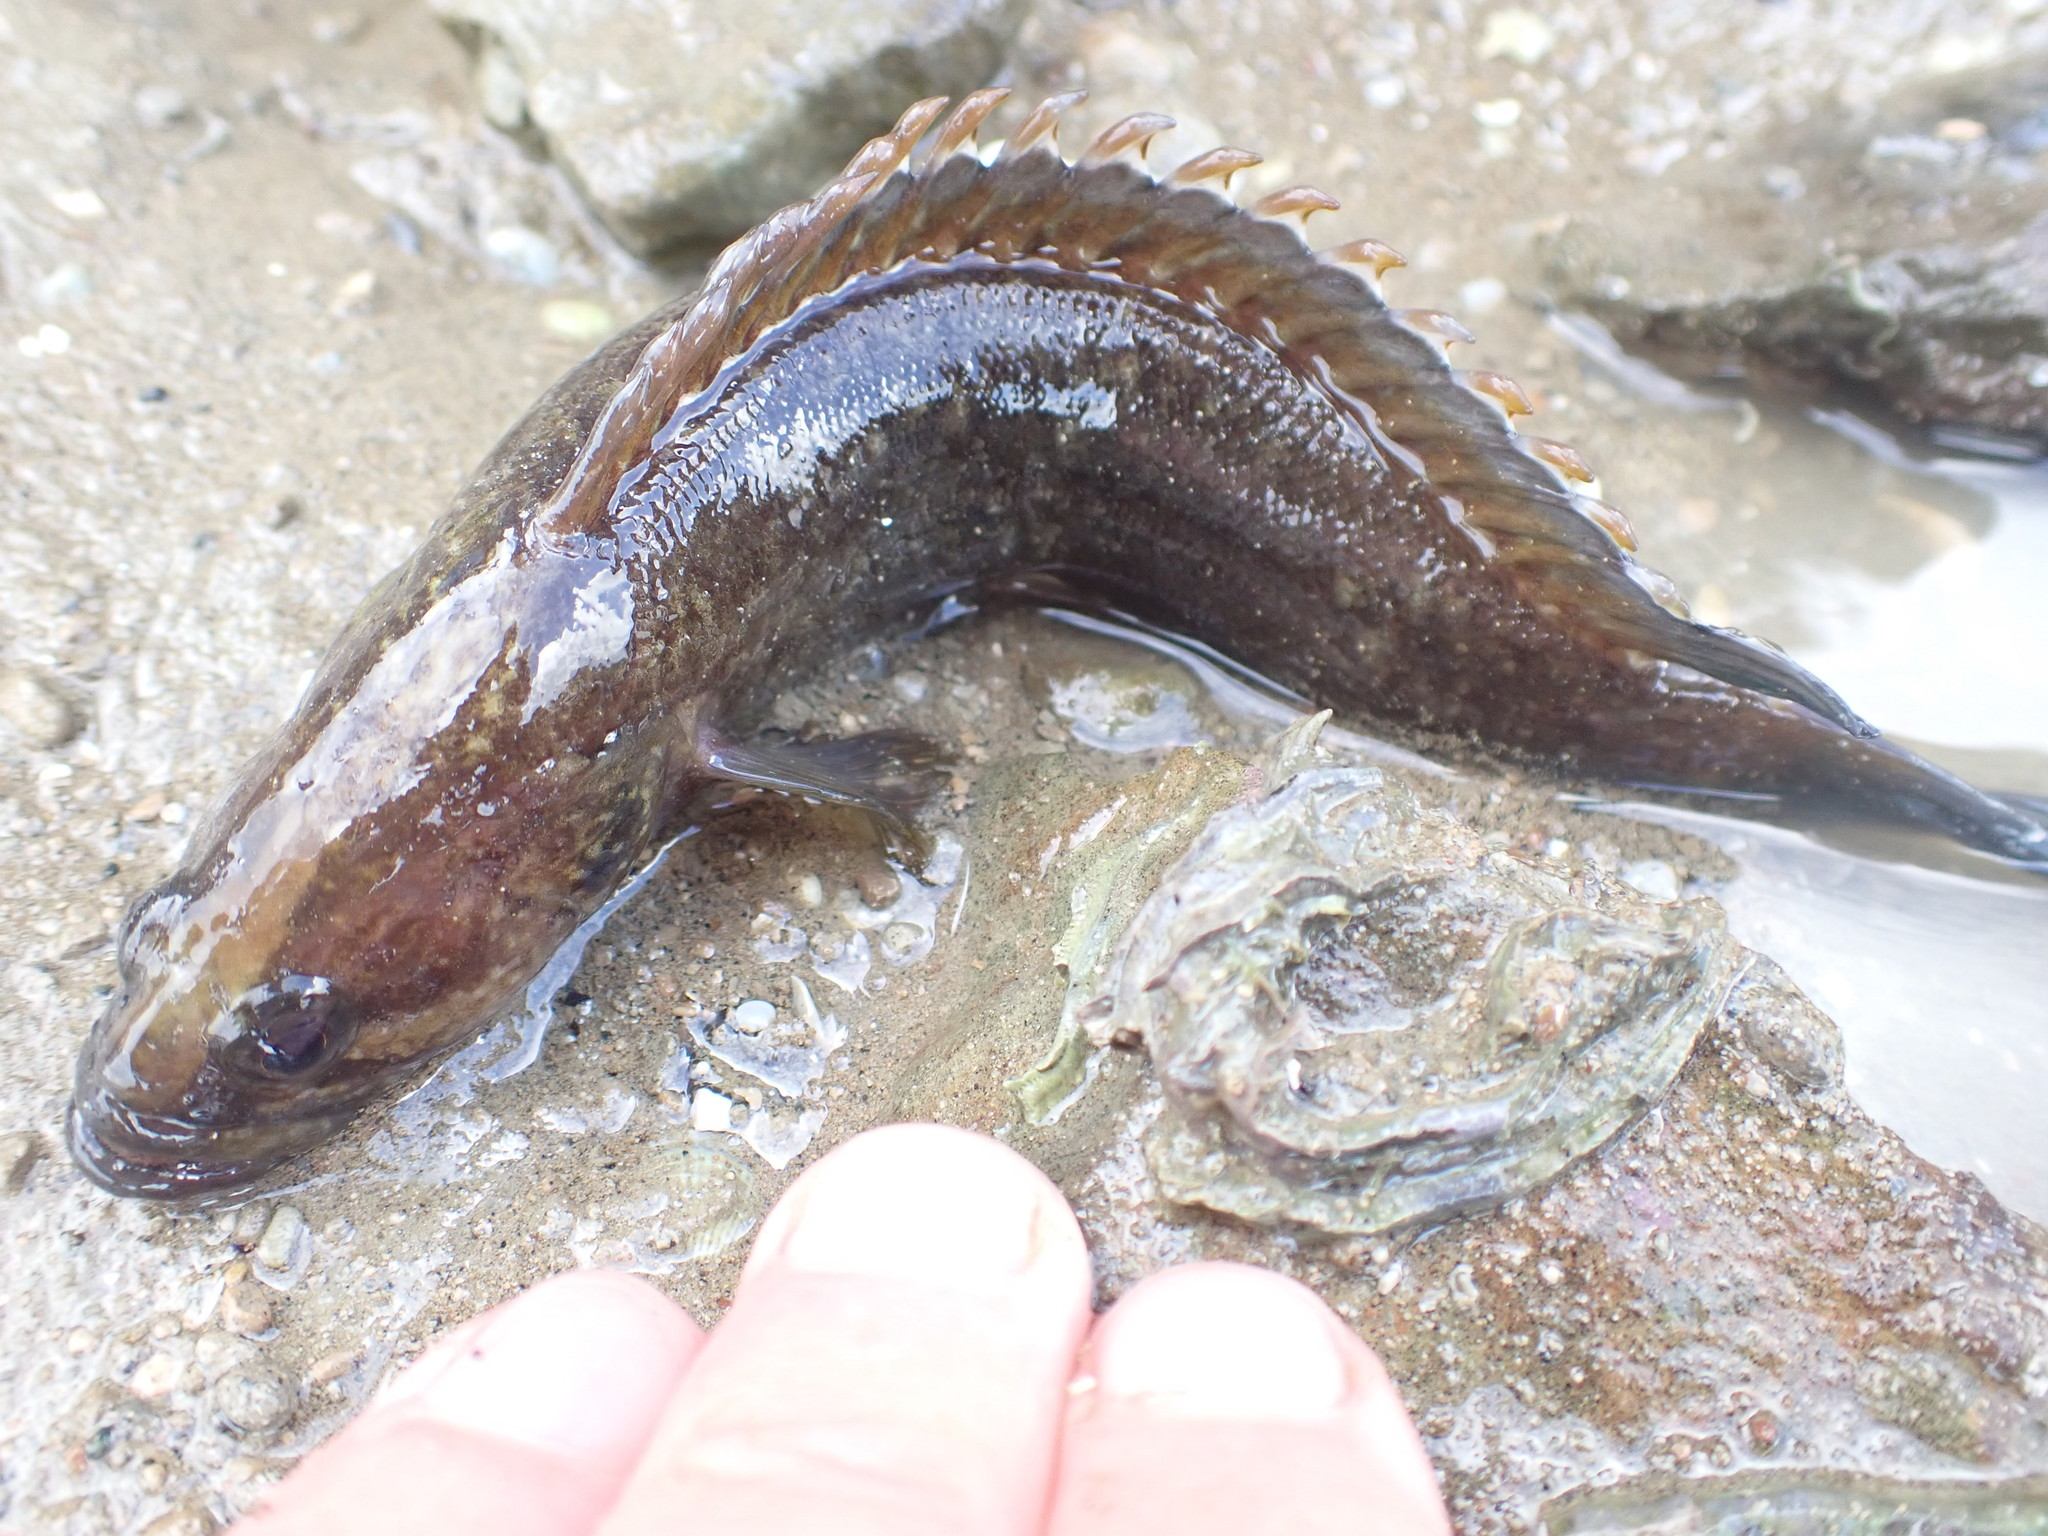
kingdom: Animalia
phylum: Chordata
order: Perciformes
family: Plesiopidae
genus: Acanthoclinus
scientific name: Acanthoclinus fuscus
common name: Olive rockfish
